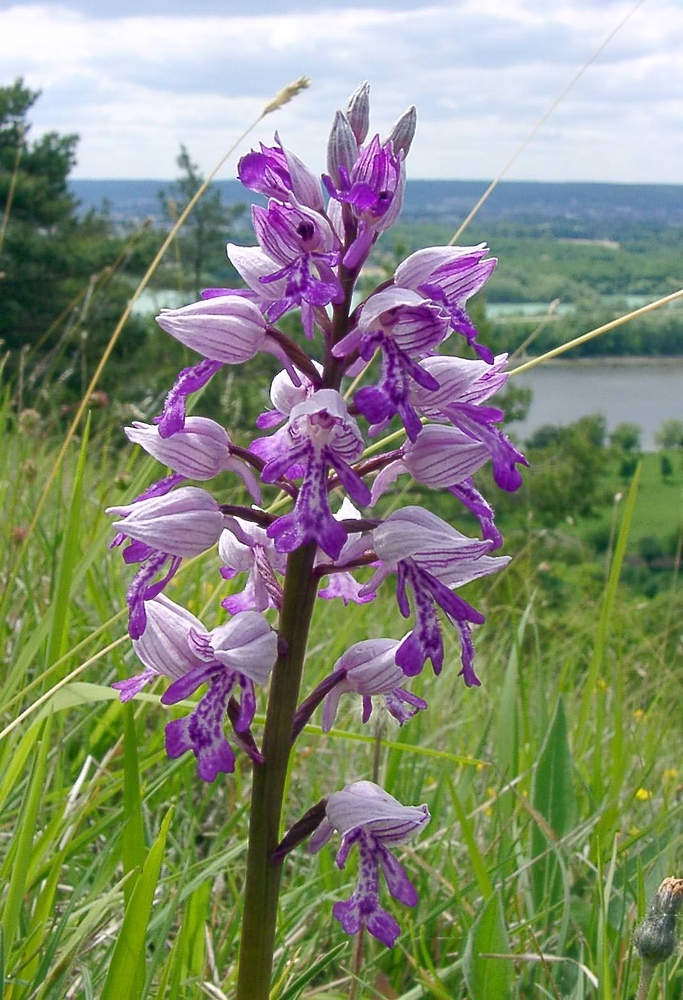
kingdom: Plantae
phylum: Tracheophyta
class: Liliopsida
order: Asparagales
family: Orchidaceae
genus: Orchis
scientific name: Orchis militaris
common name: Military orchid
